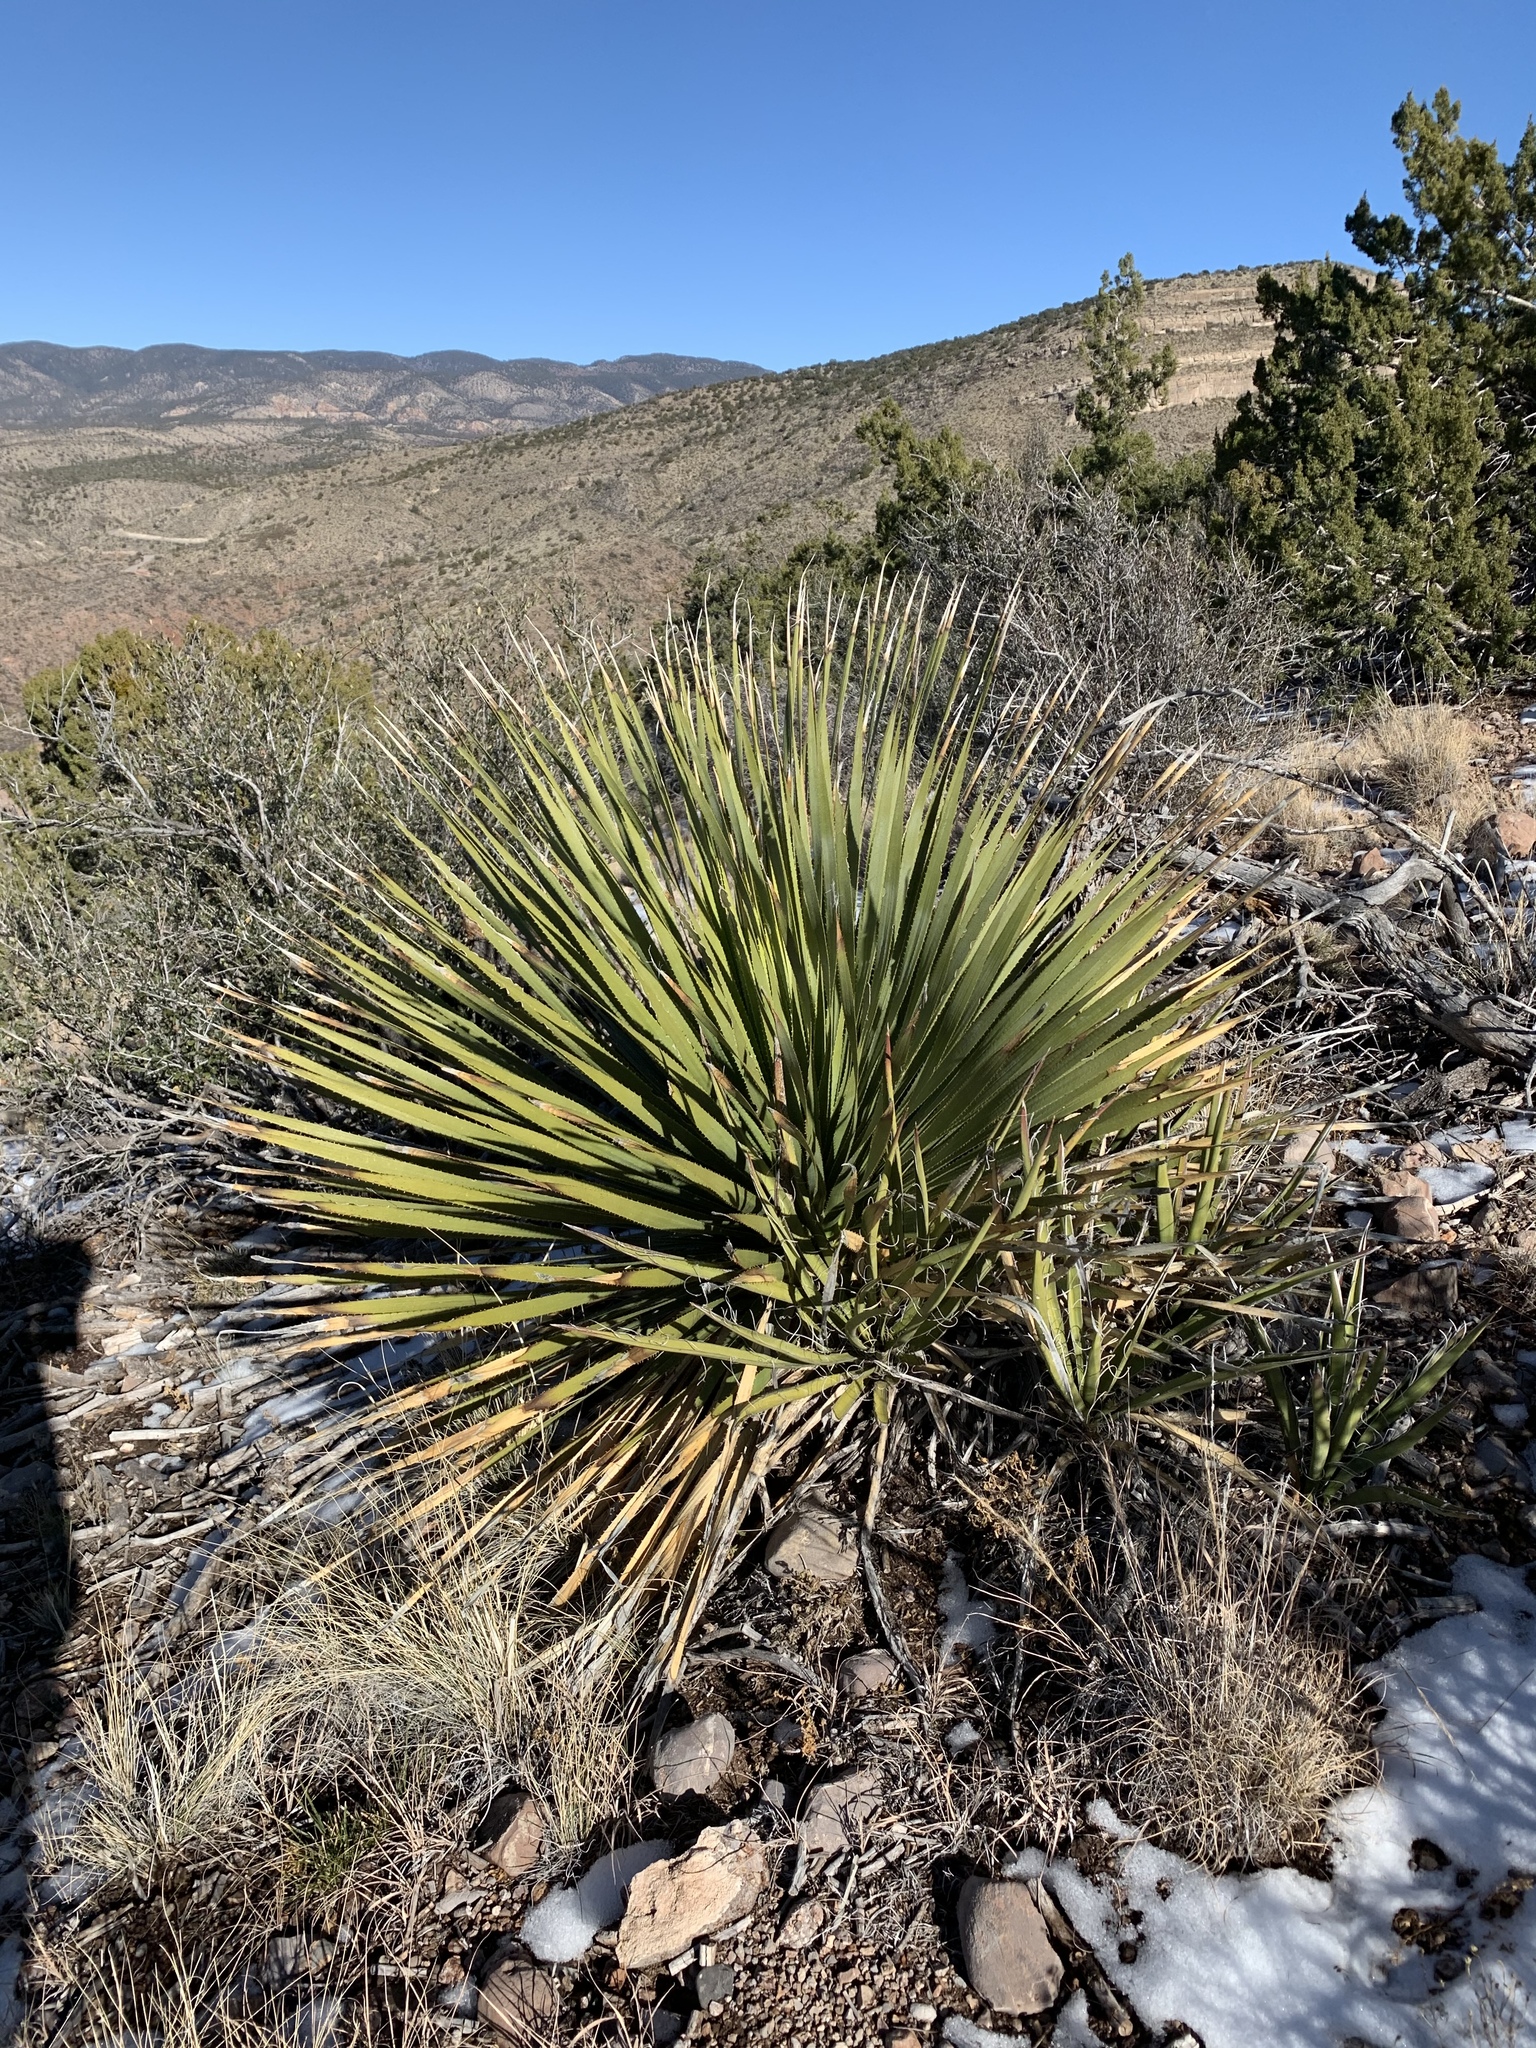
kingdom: Plantae
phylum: Tracheophyta
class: Liliopsida
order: Asparagales
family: Asparagaceae
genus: Dasylirion
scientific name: Dasylirion wheeleri
